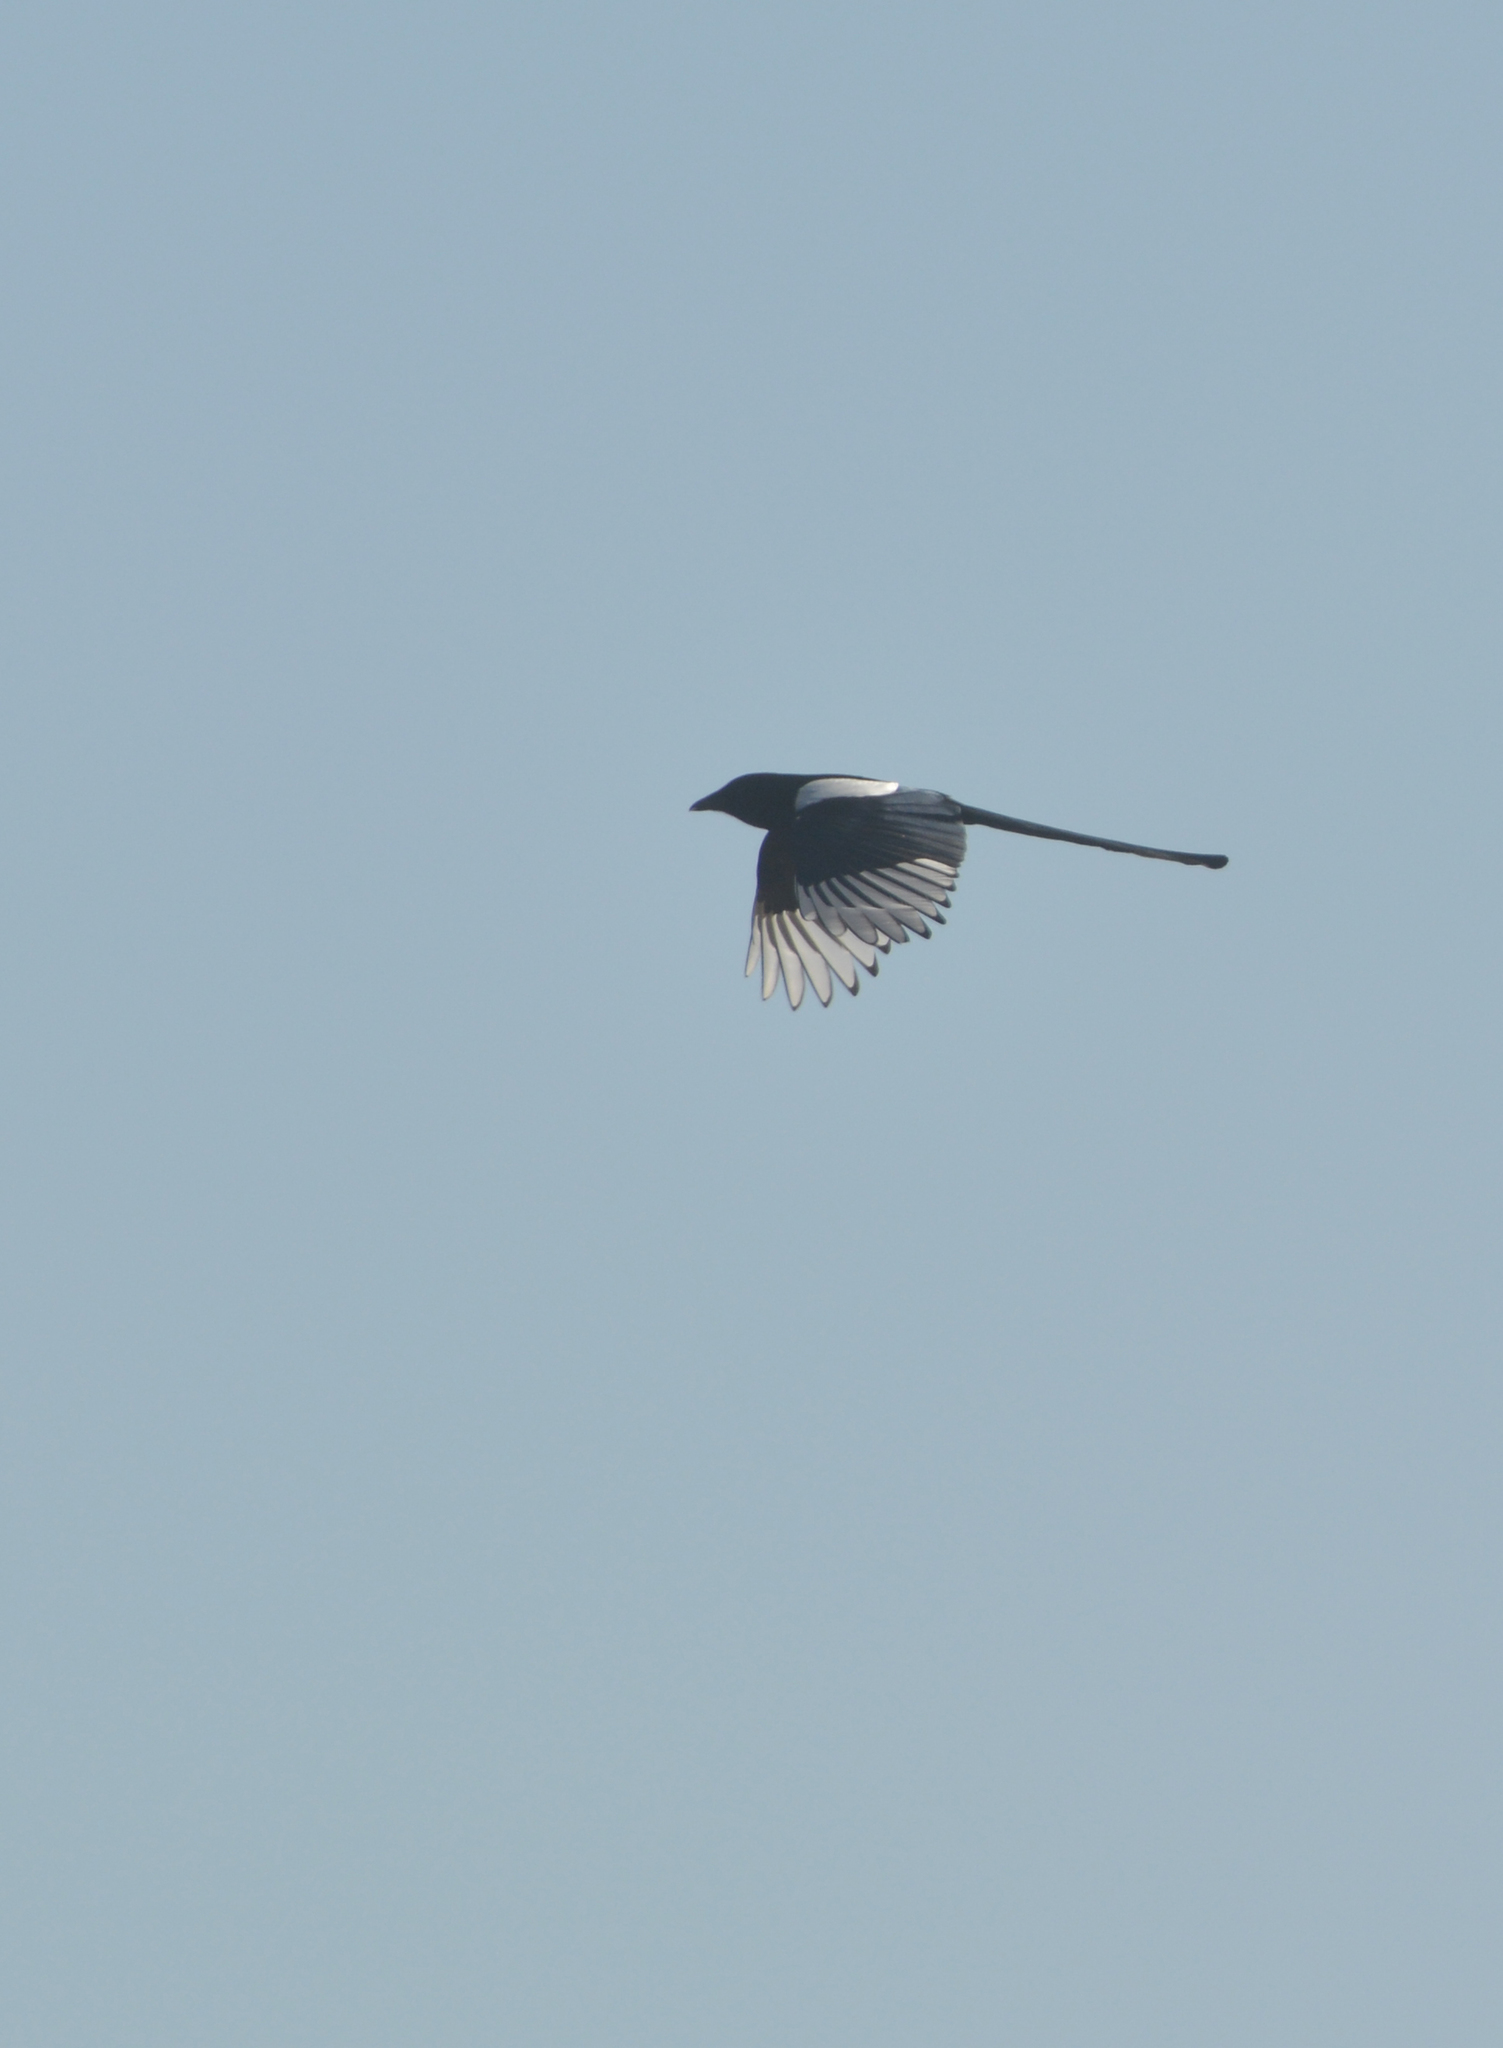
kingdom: Animalia
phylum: Chordata
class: Aves
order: Passeriformes
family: Corvidae
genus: Pica
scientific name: Pica pica
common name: Eurasian magpie
